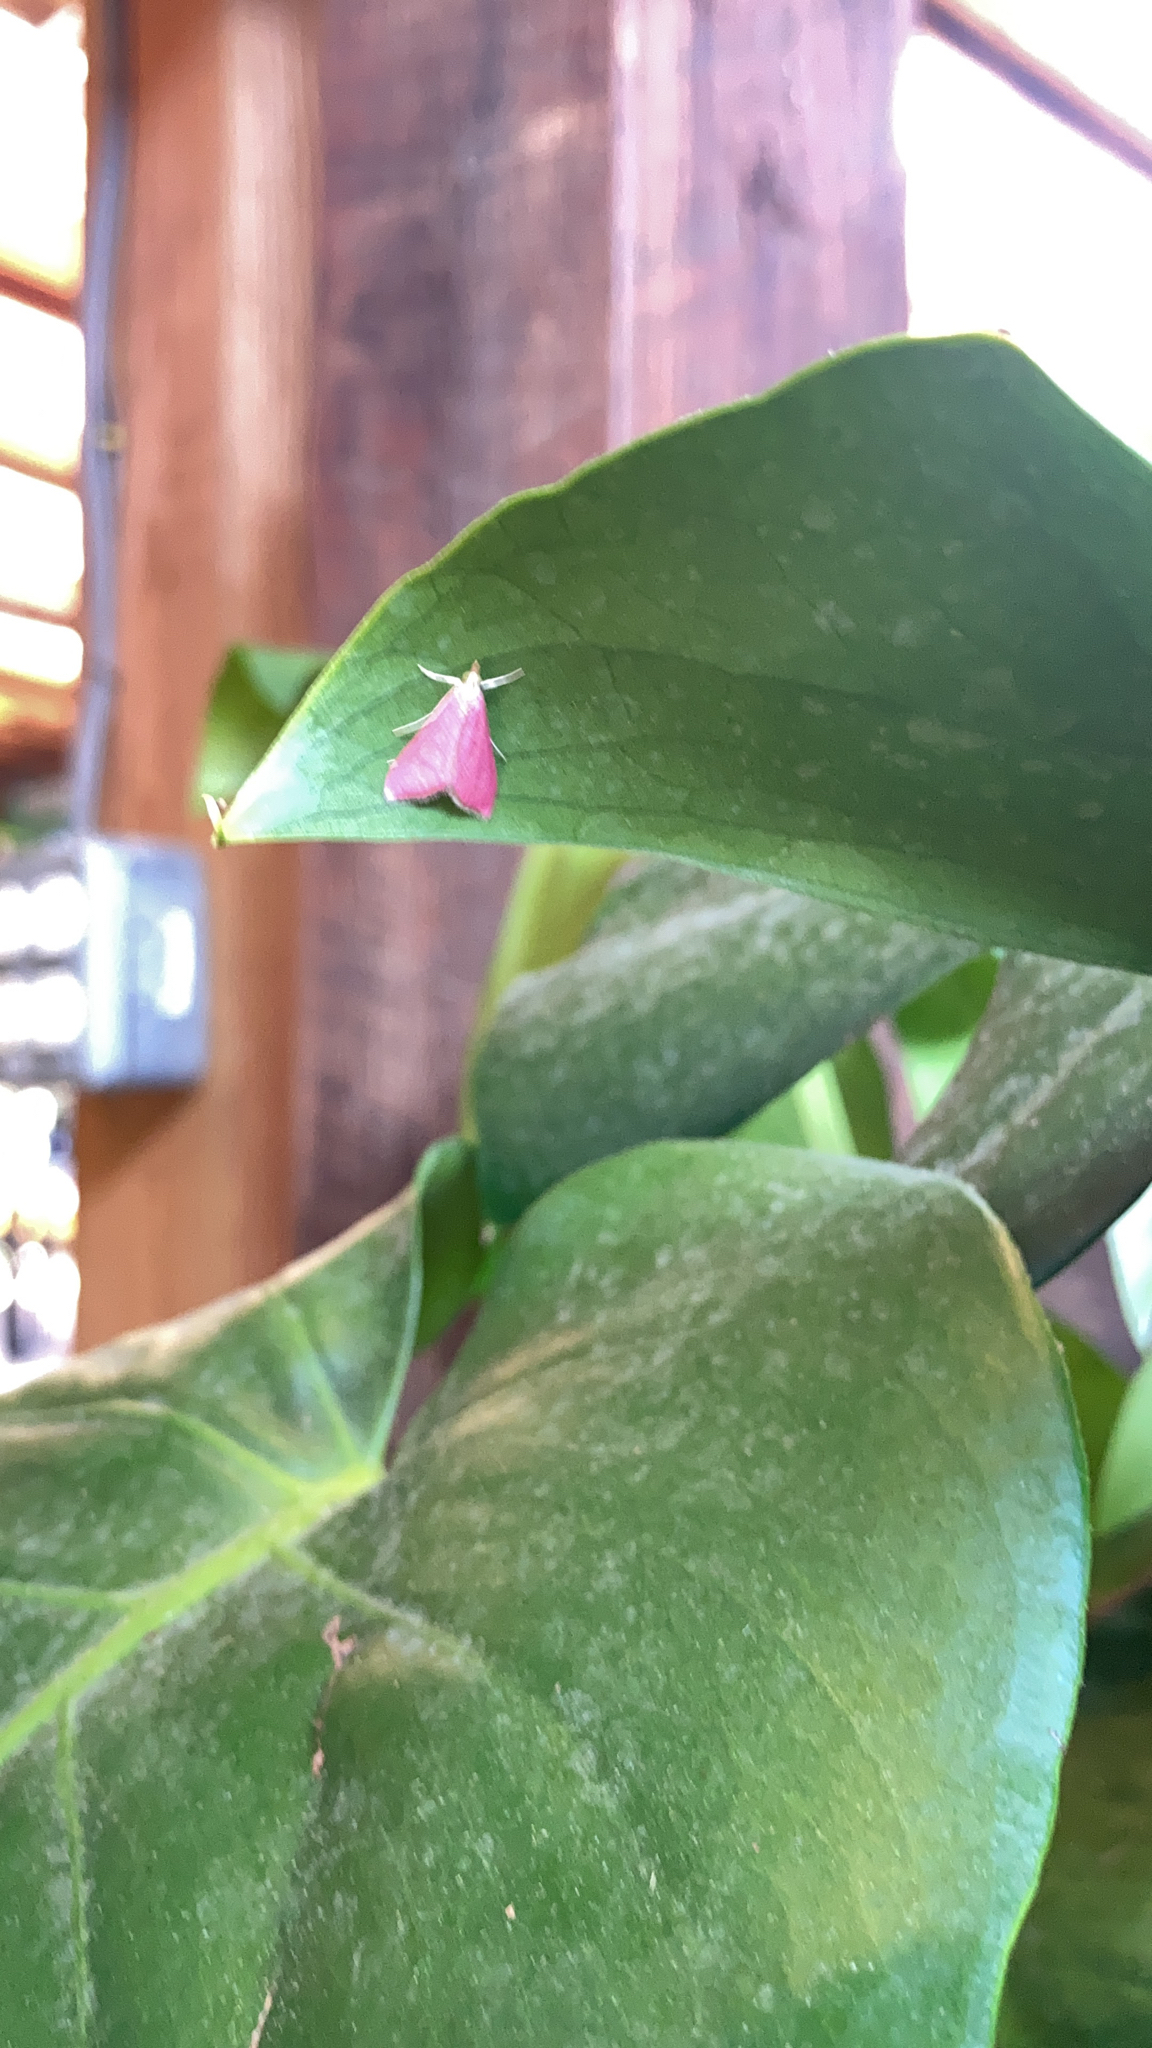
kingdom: Animalia
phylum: Arthropoda
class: Insecta
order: Lepidoptera
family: Crambidae
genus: Pyrausta
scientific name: Pyrausta inornatalis
